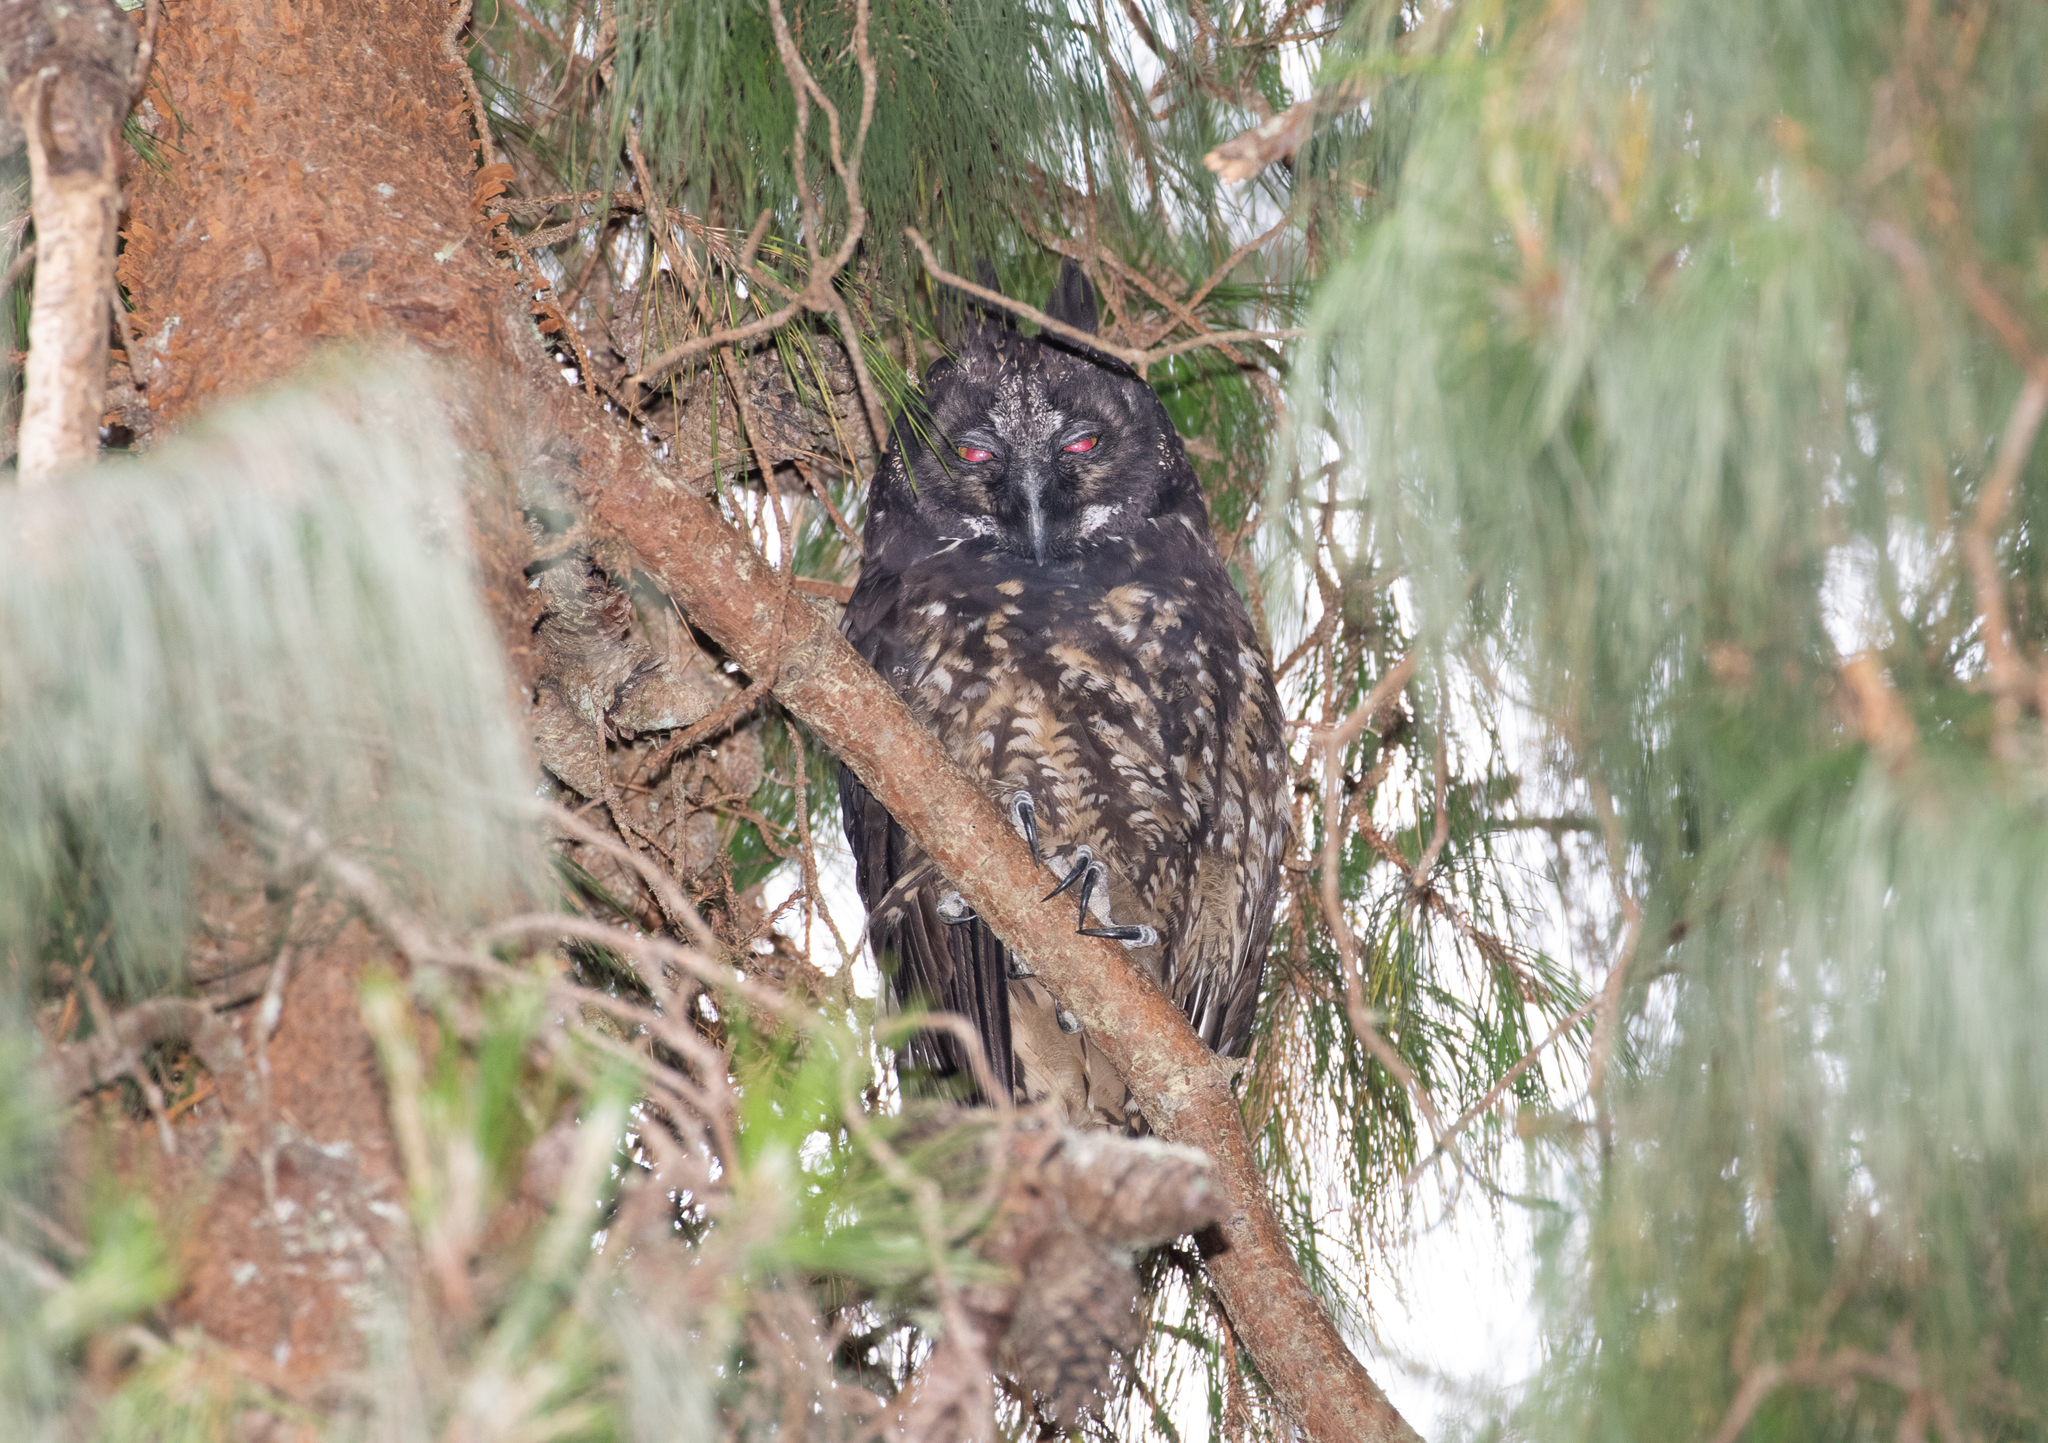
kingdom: Animalia
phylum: Chordata
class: Aves
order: Strigiformes
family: Strigidae
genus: Asio
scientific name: Asio stygius
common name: Stygian owl
